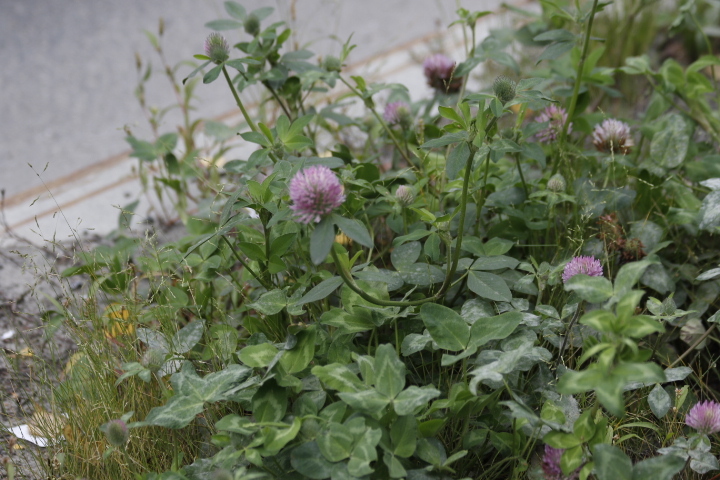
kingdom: Plantae
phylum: Tracheophyta
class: Magnoliopsida
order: Fabales
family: Fabaceae
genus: Trifolium
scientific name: Trifolium pratense
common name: Red clover
